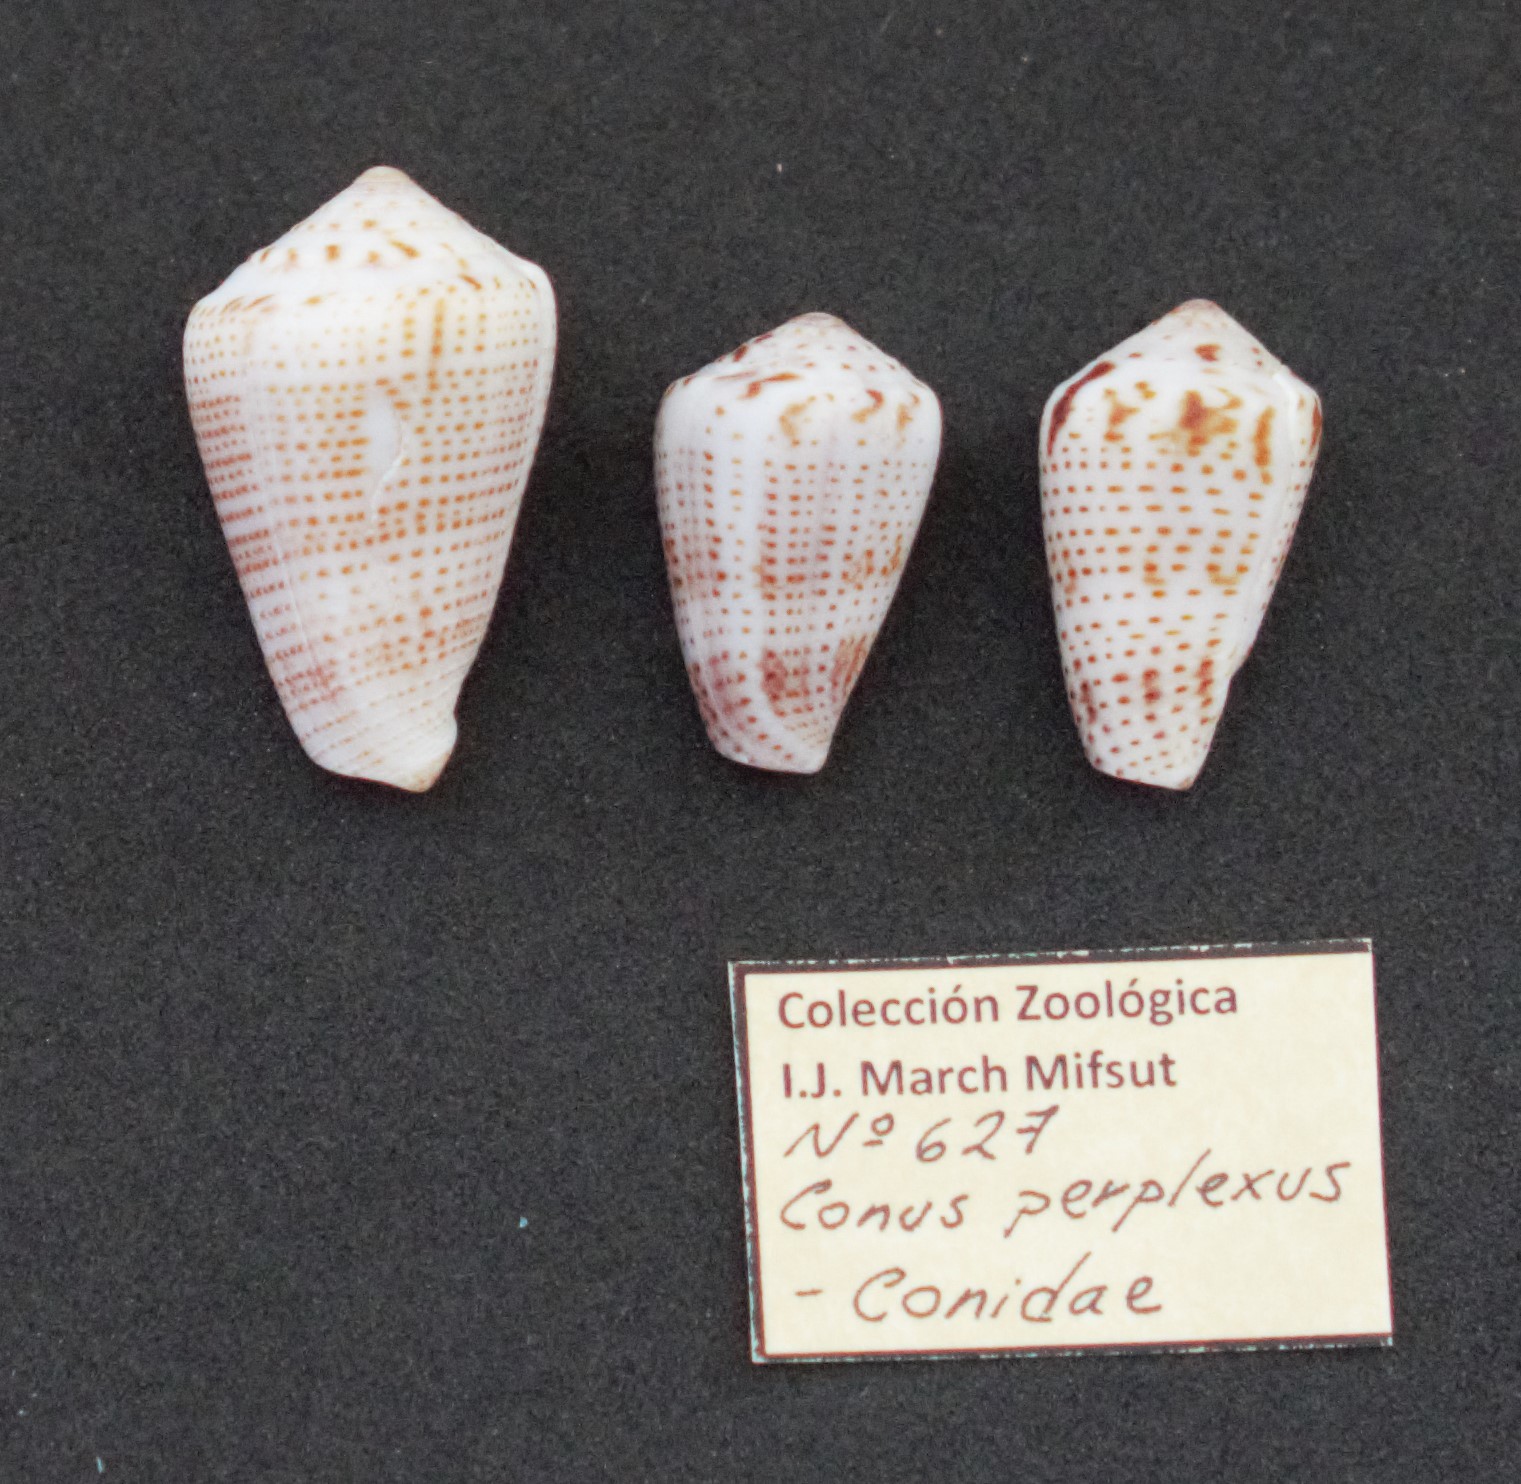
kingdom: Animalia
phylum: Mollusca
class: Gastropoda
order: Neogastropoda
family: Conidae
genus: Conasprella
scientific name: Conasprella perplexa
